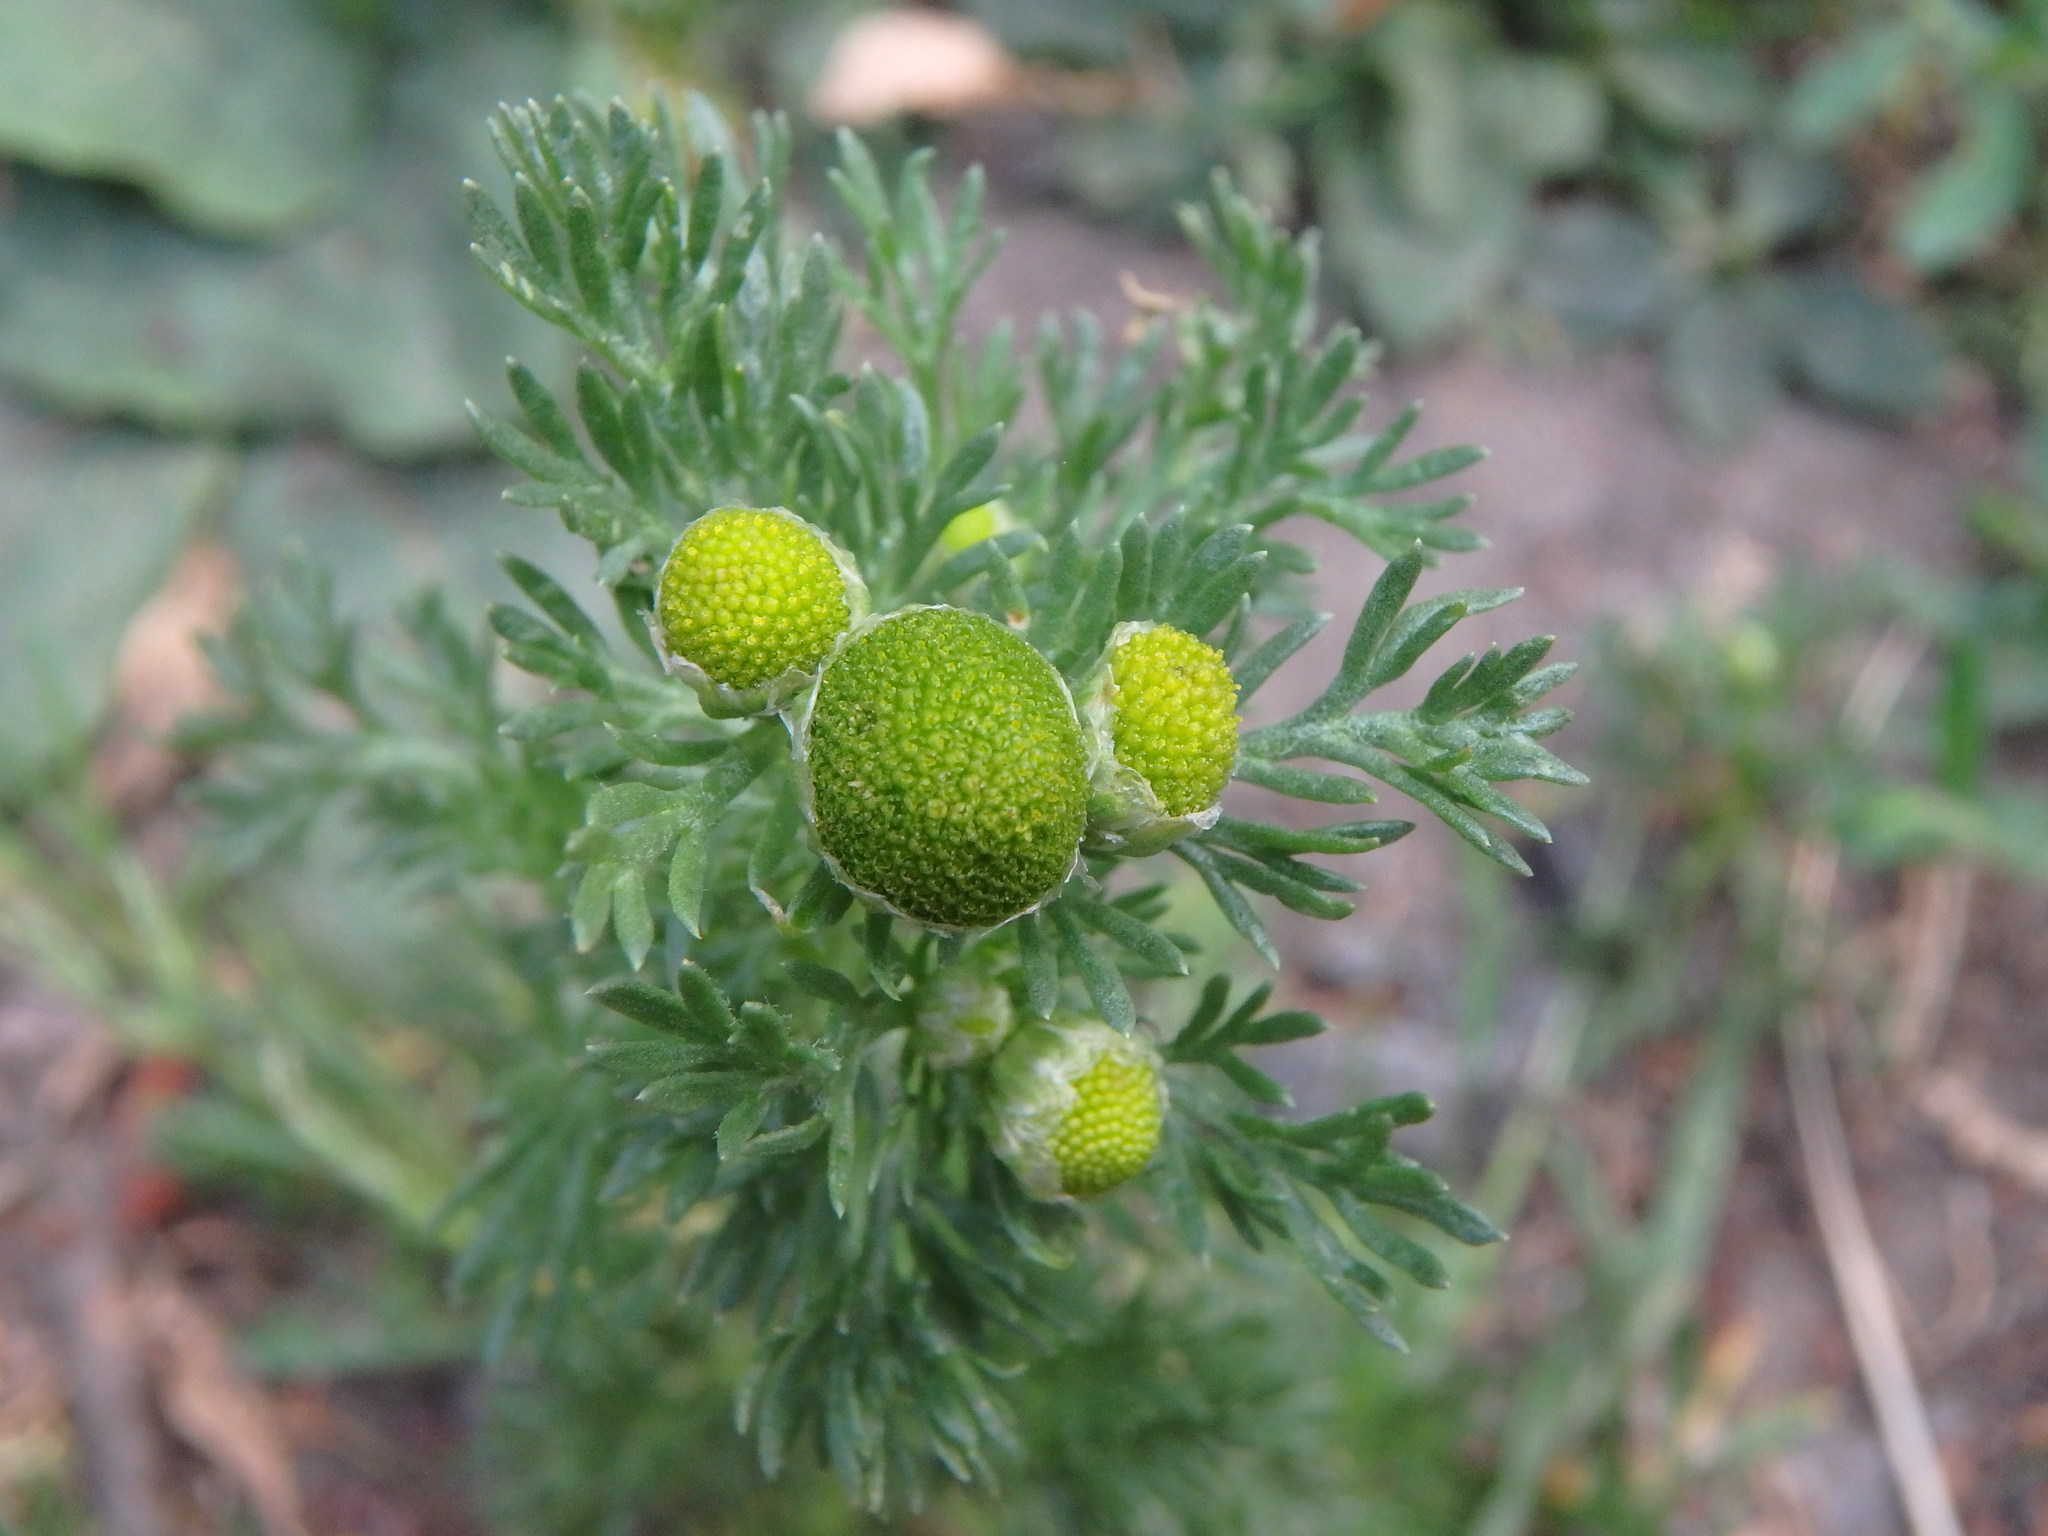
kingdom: Plantae
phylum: Tracheophyta
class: Magnoliopsida
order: Asterales
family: Asteraceae
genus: Matricaria
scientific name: Matricaria discoidea
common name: Disc mayweed
